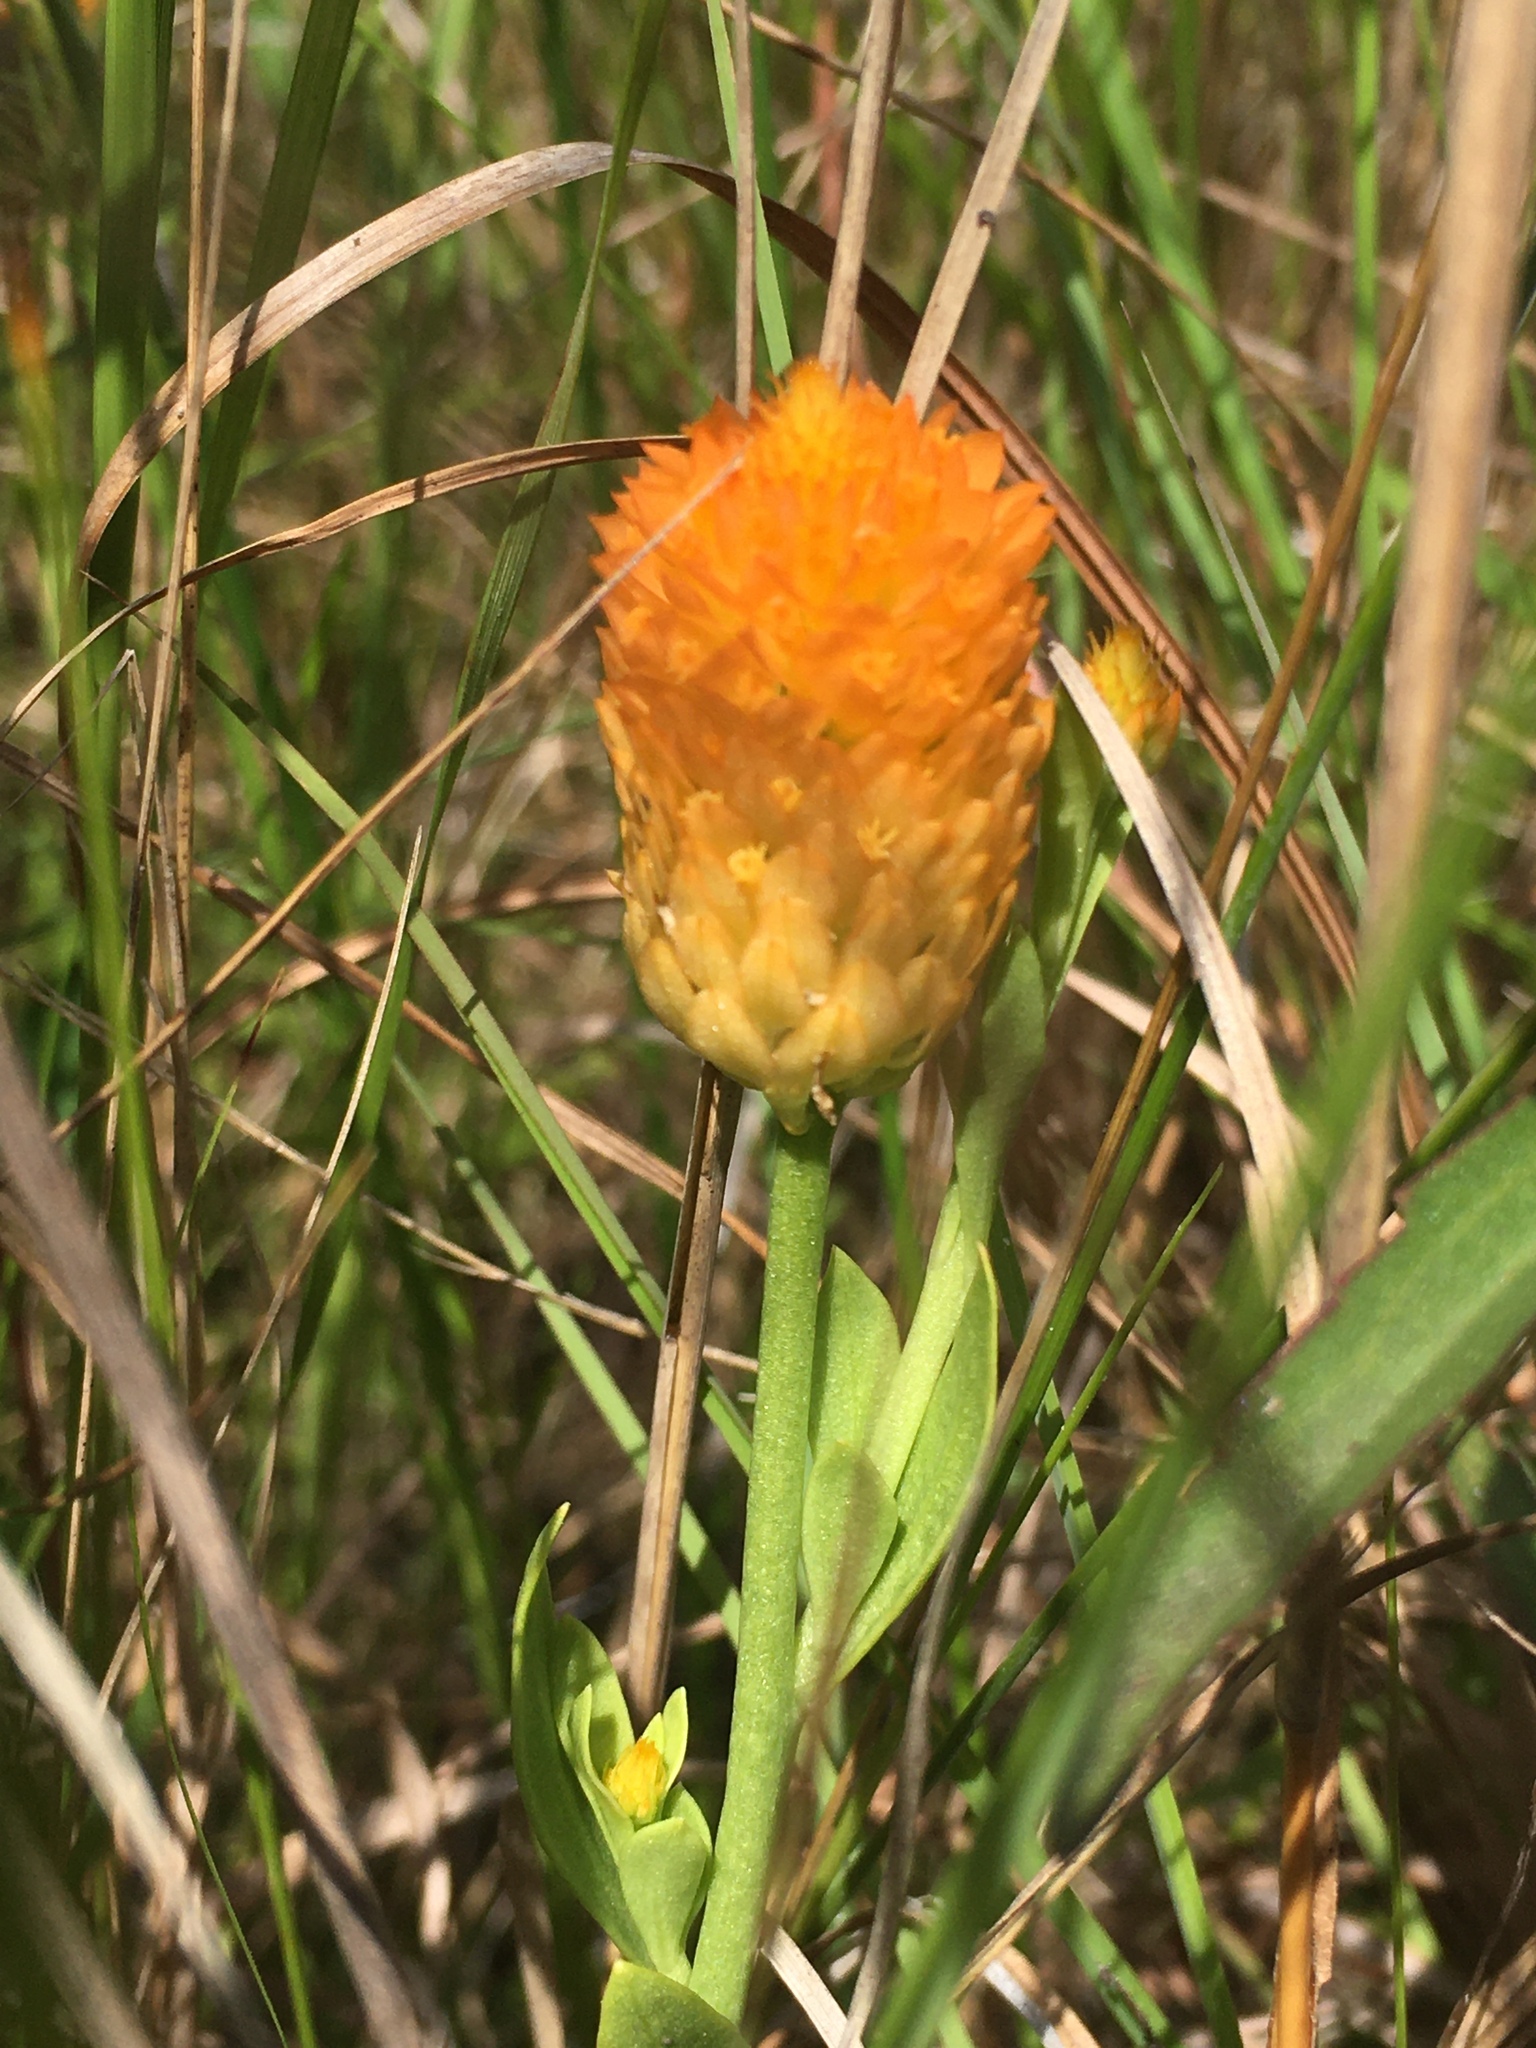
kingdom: Plantae
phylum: Tracheophyta
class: Magnoliopsida
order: Fabales
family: Polygalaceae
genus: Polygala
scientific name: Polygala lutea
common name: Orange milkwort
